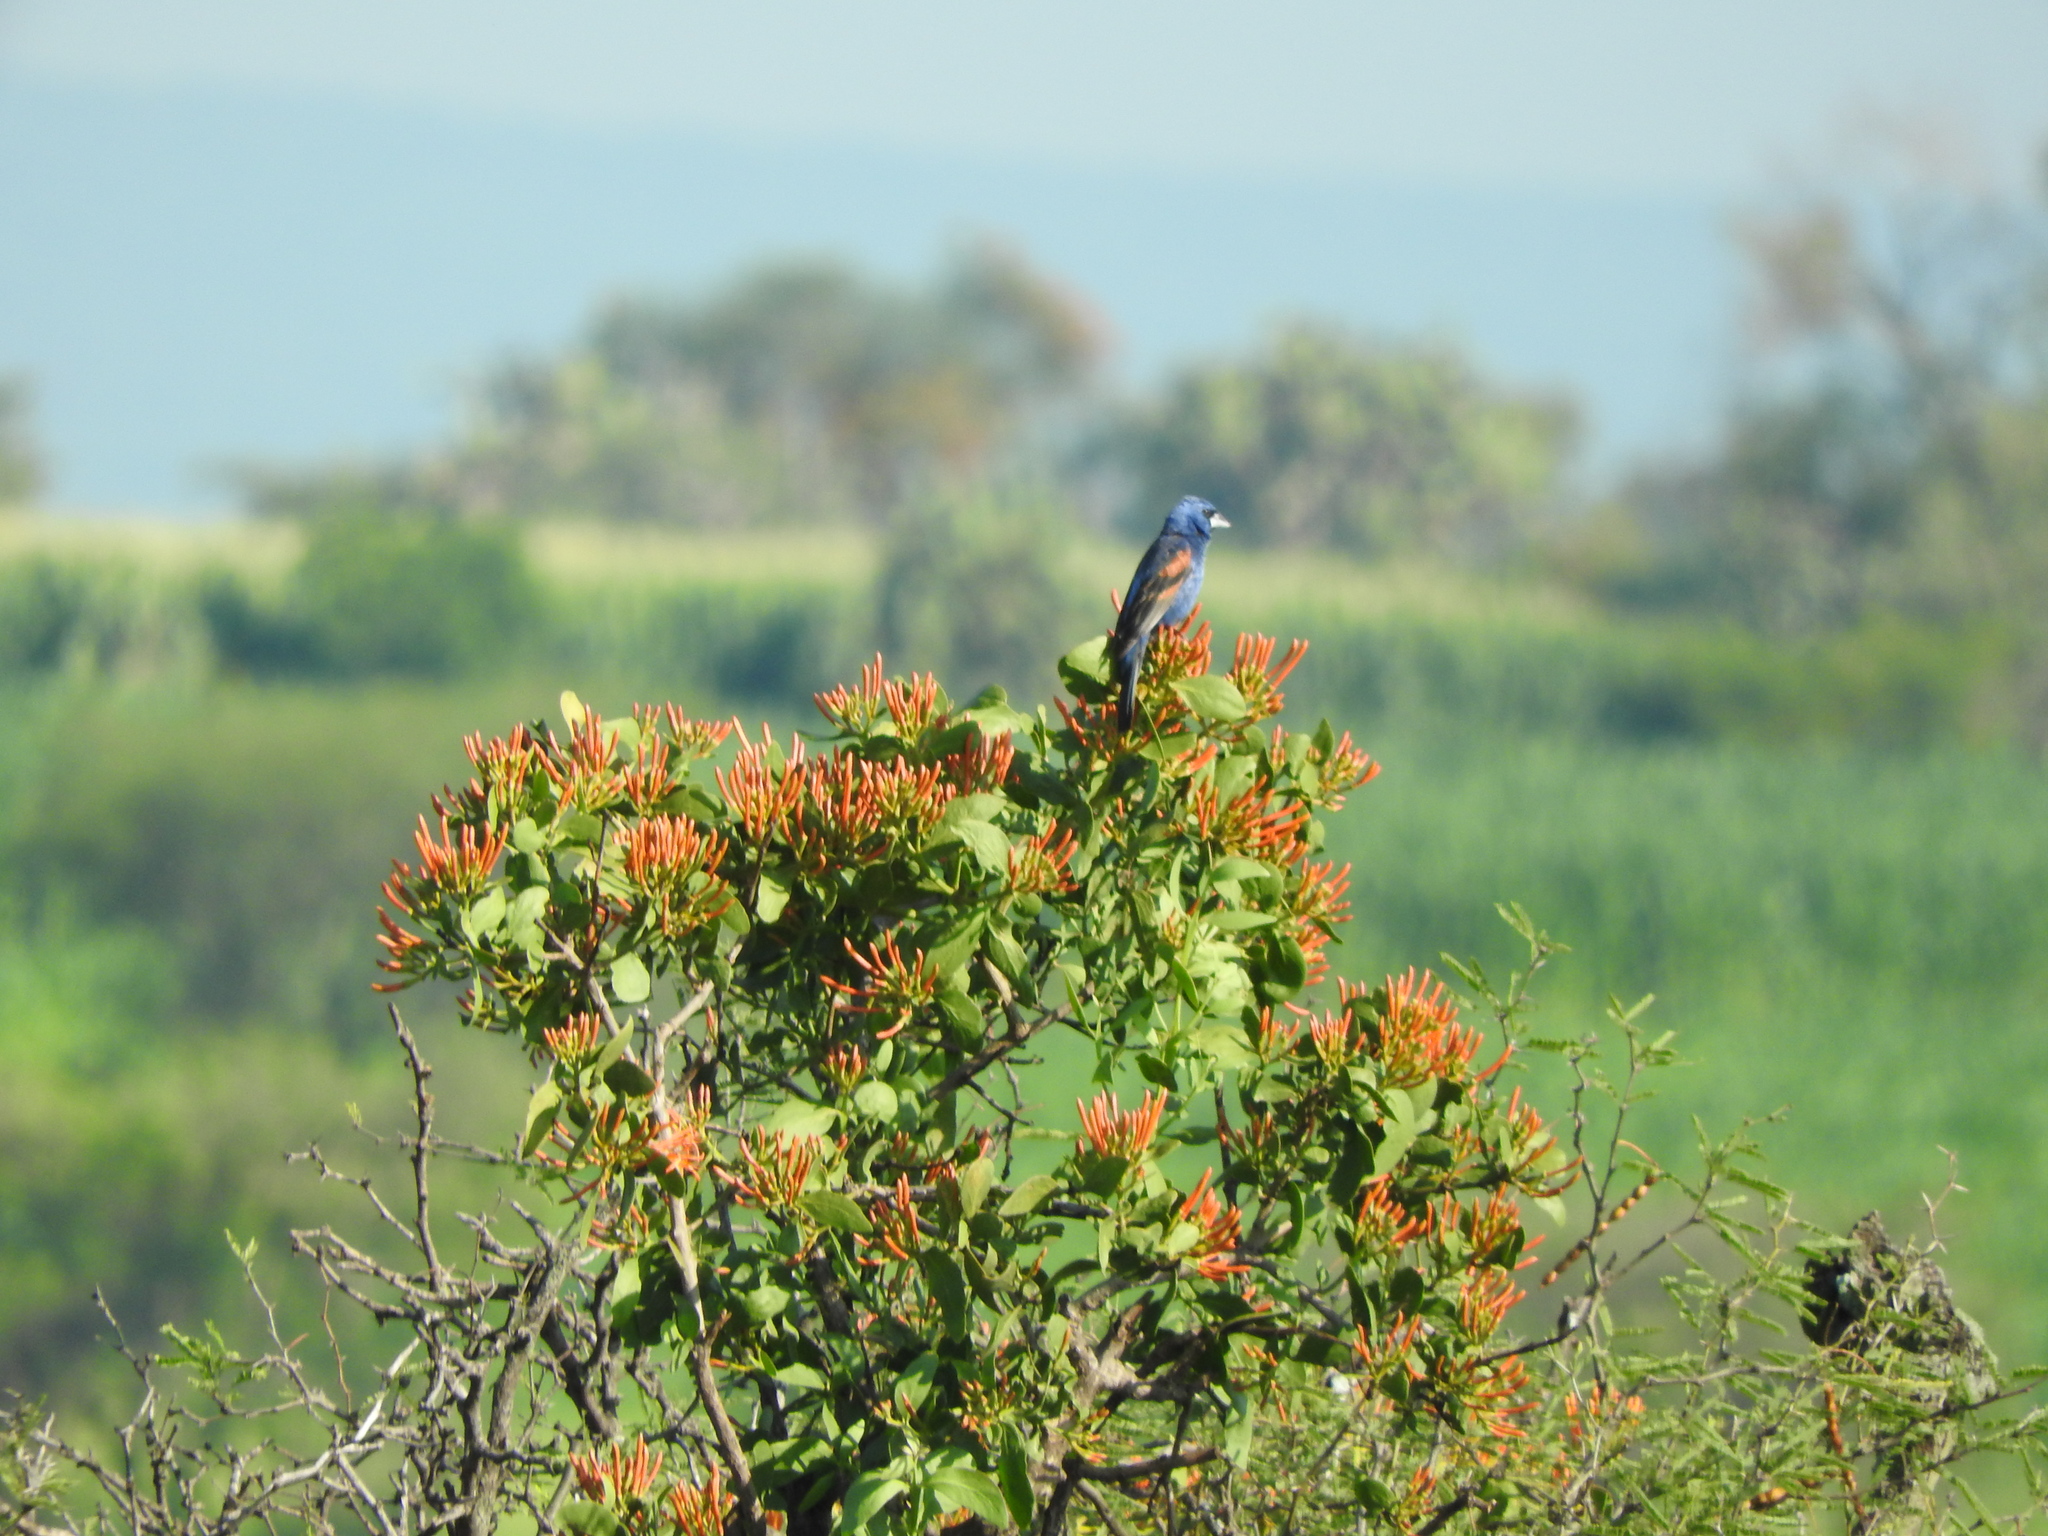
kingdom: Animalia
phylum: Chordata
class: Aves
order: Passeriformes
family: Cardinalidae
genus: Passerina
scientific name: Passerina caerulea
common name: Blue grosbeak
